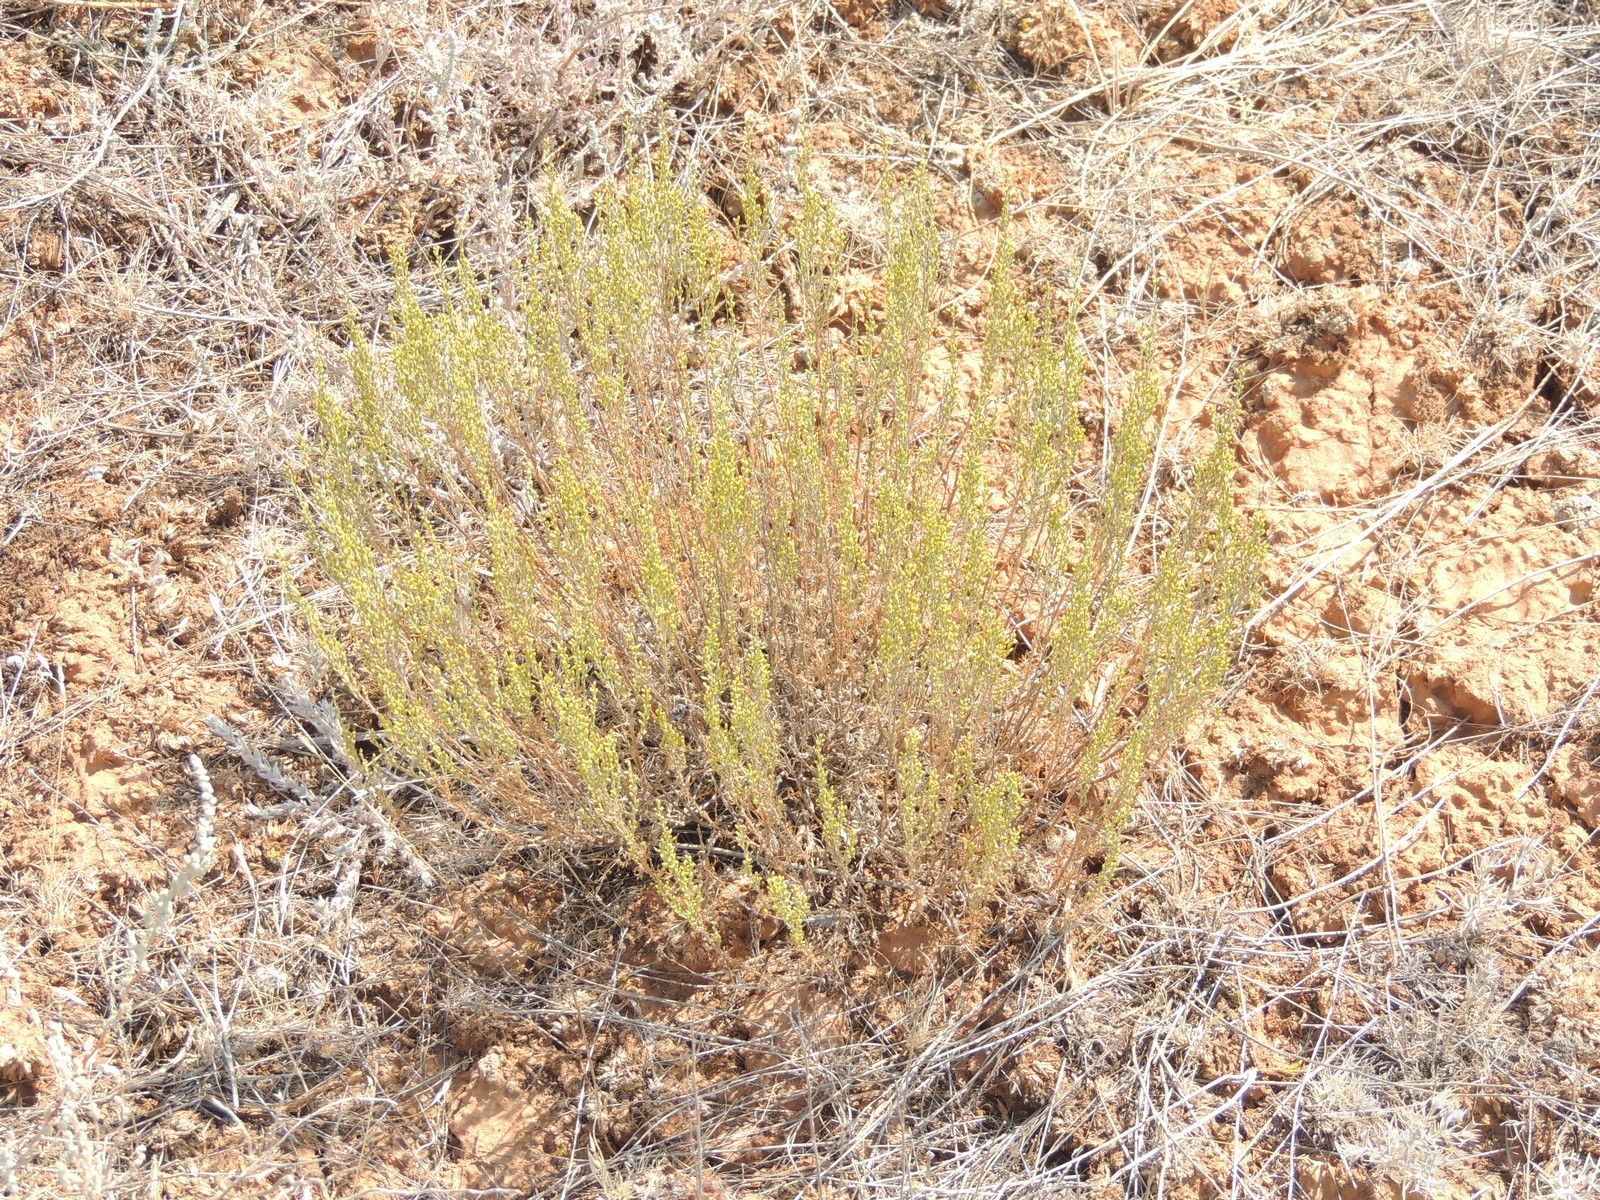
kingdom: Plantae
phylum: Tracheophyta
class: Magnoliopsida
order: Asterales
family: Asteraceae
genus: Artemisia
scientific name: Artemisia pauciflora
